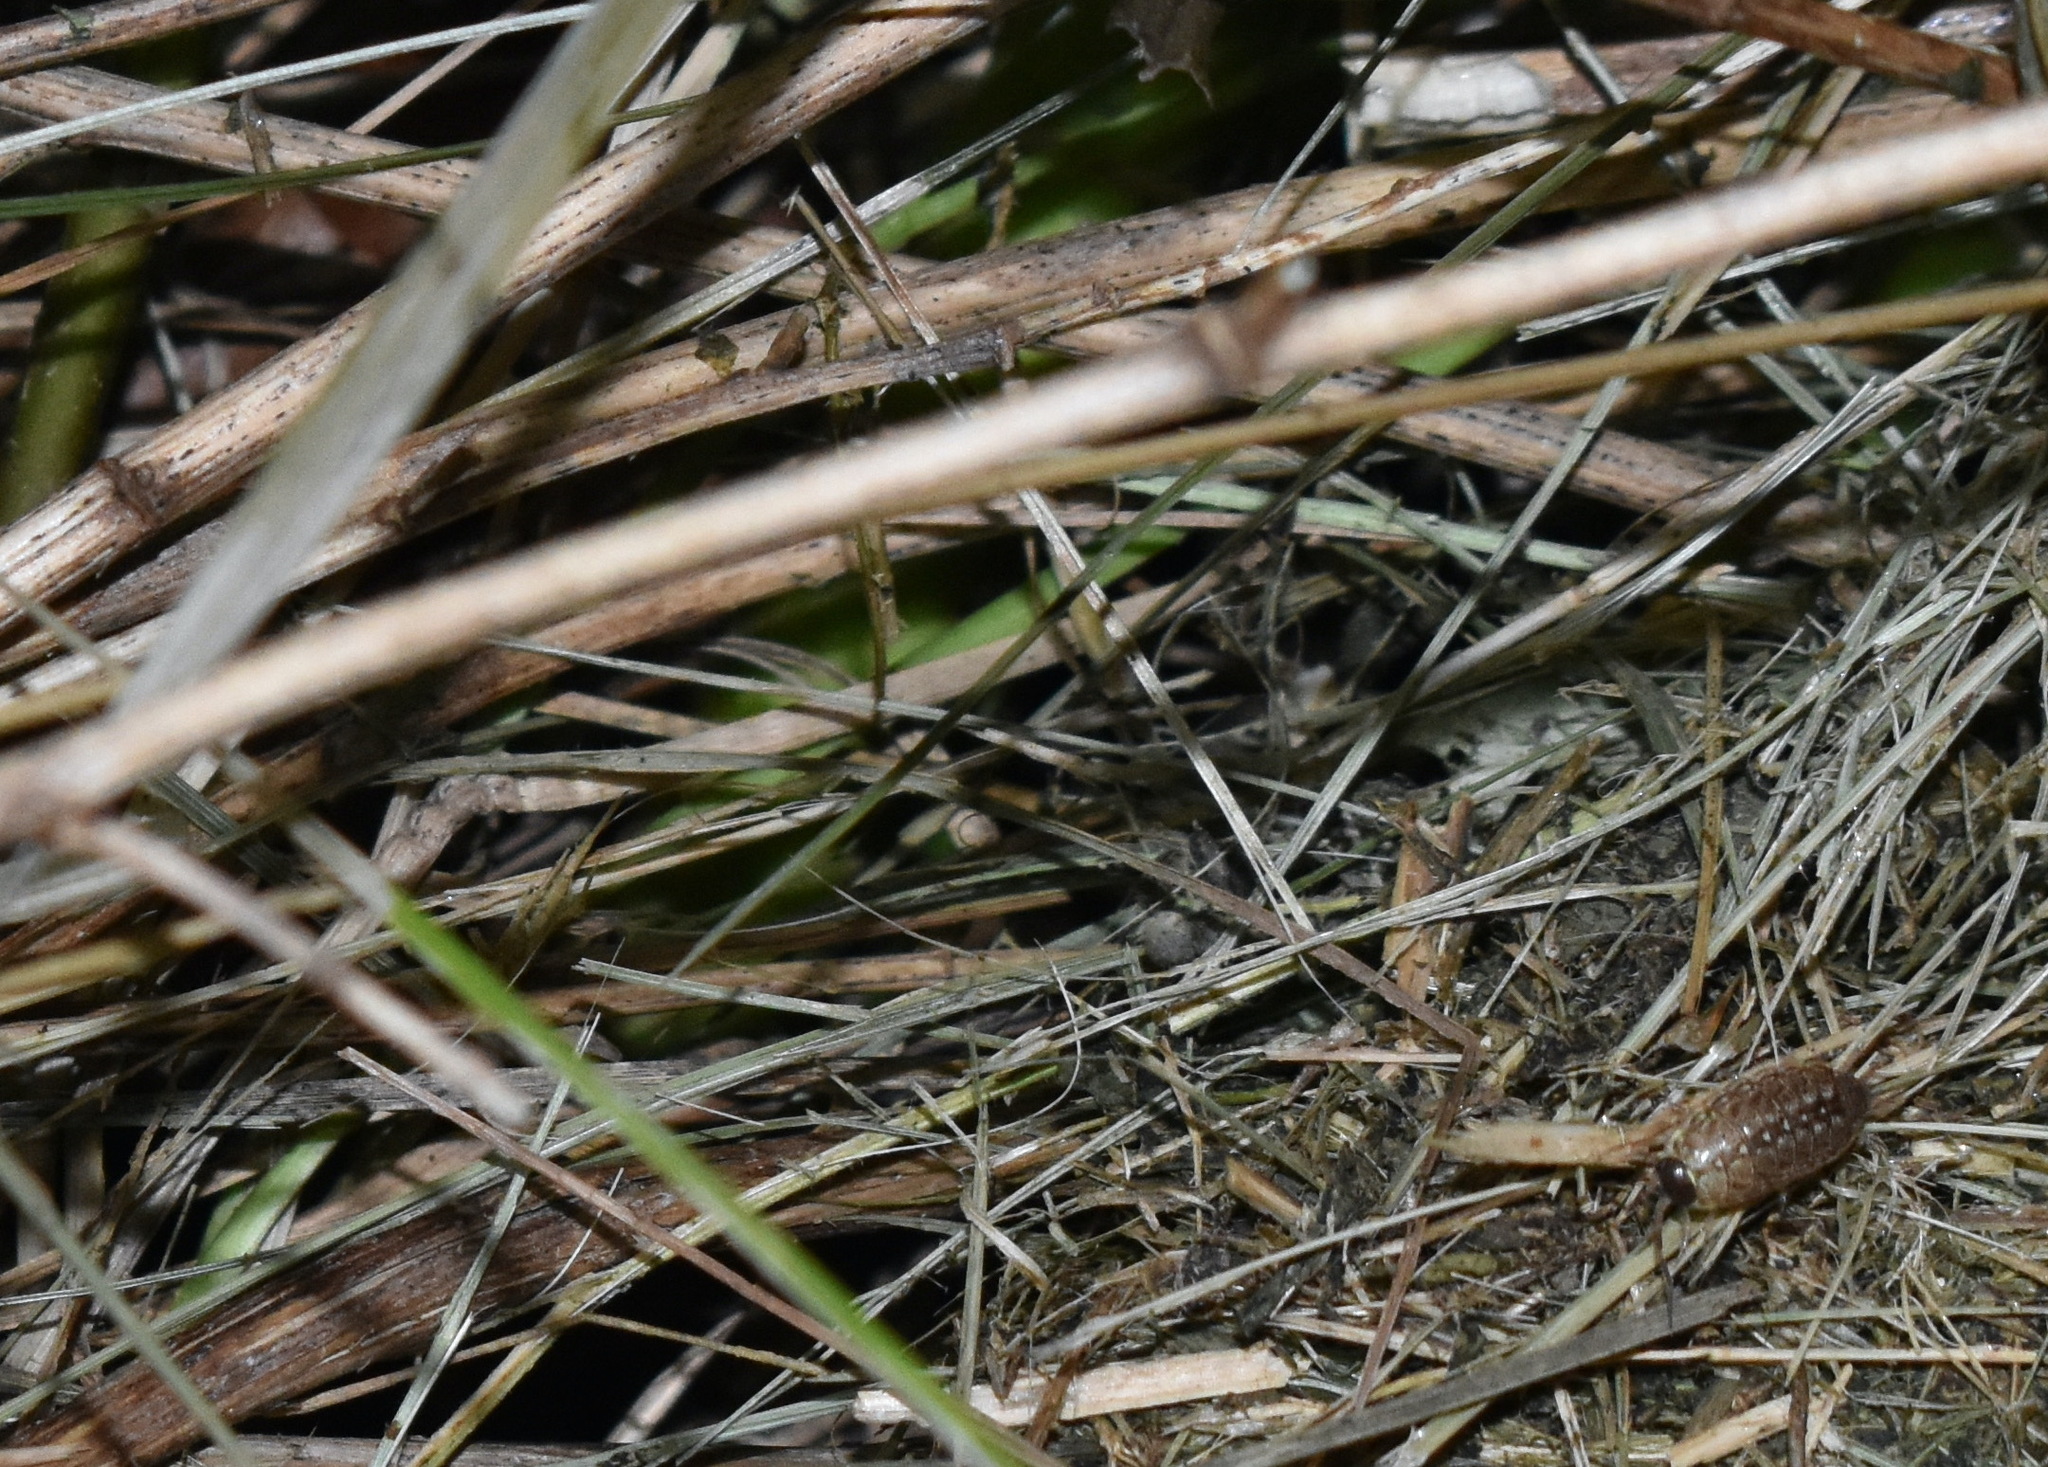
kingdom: Animalia
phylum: Arthropoda
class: Malacostraca
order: Isopoda
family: Philosciidae
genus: Philoscia
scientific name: Philoscia muscorum
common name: Common striped woodlouse
